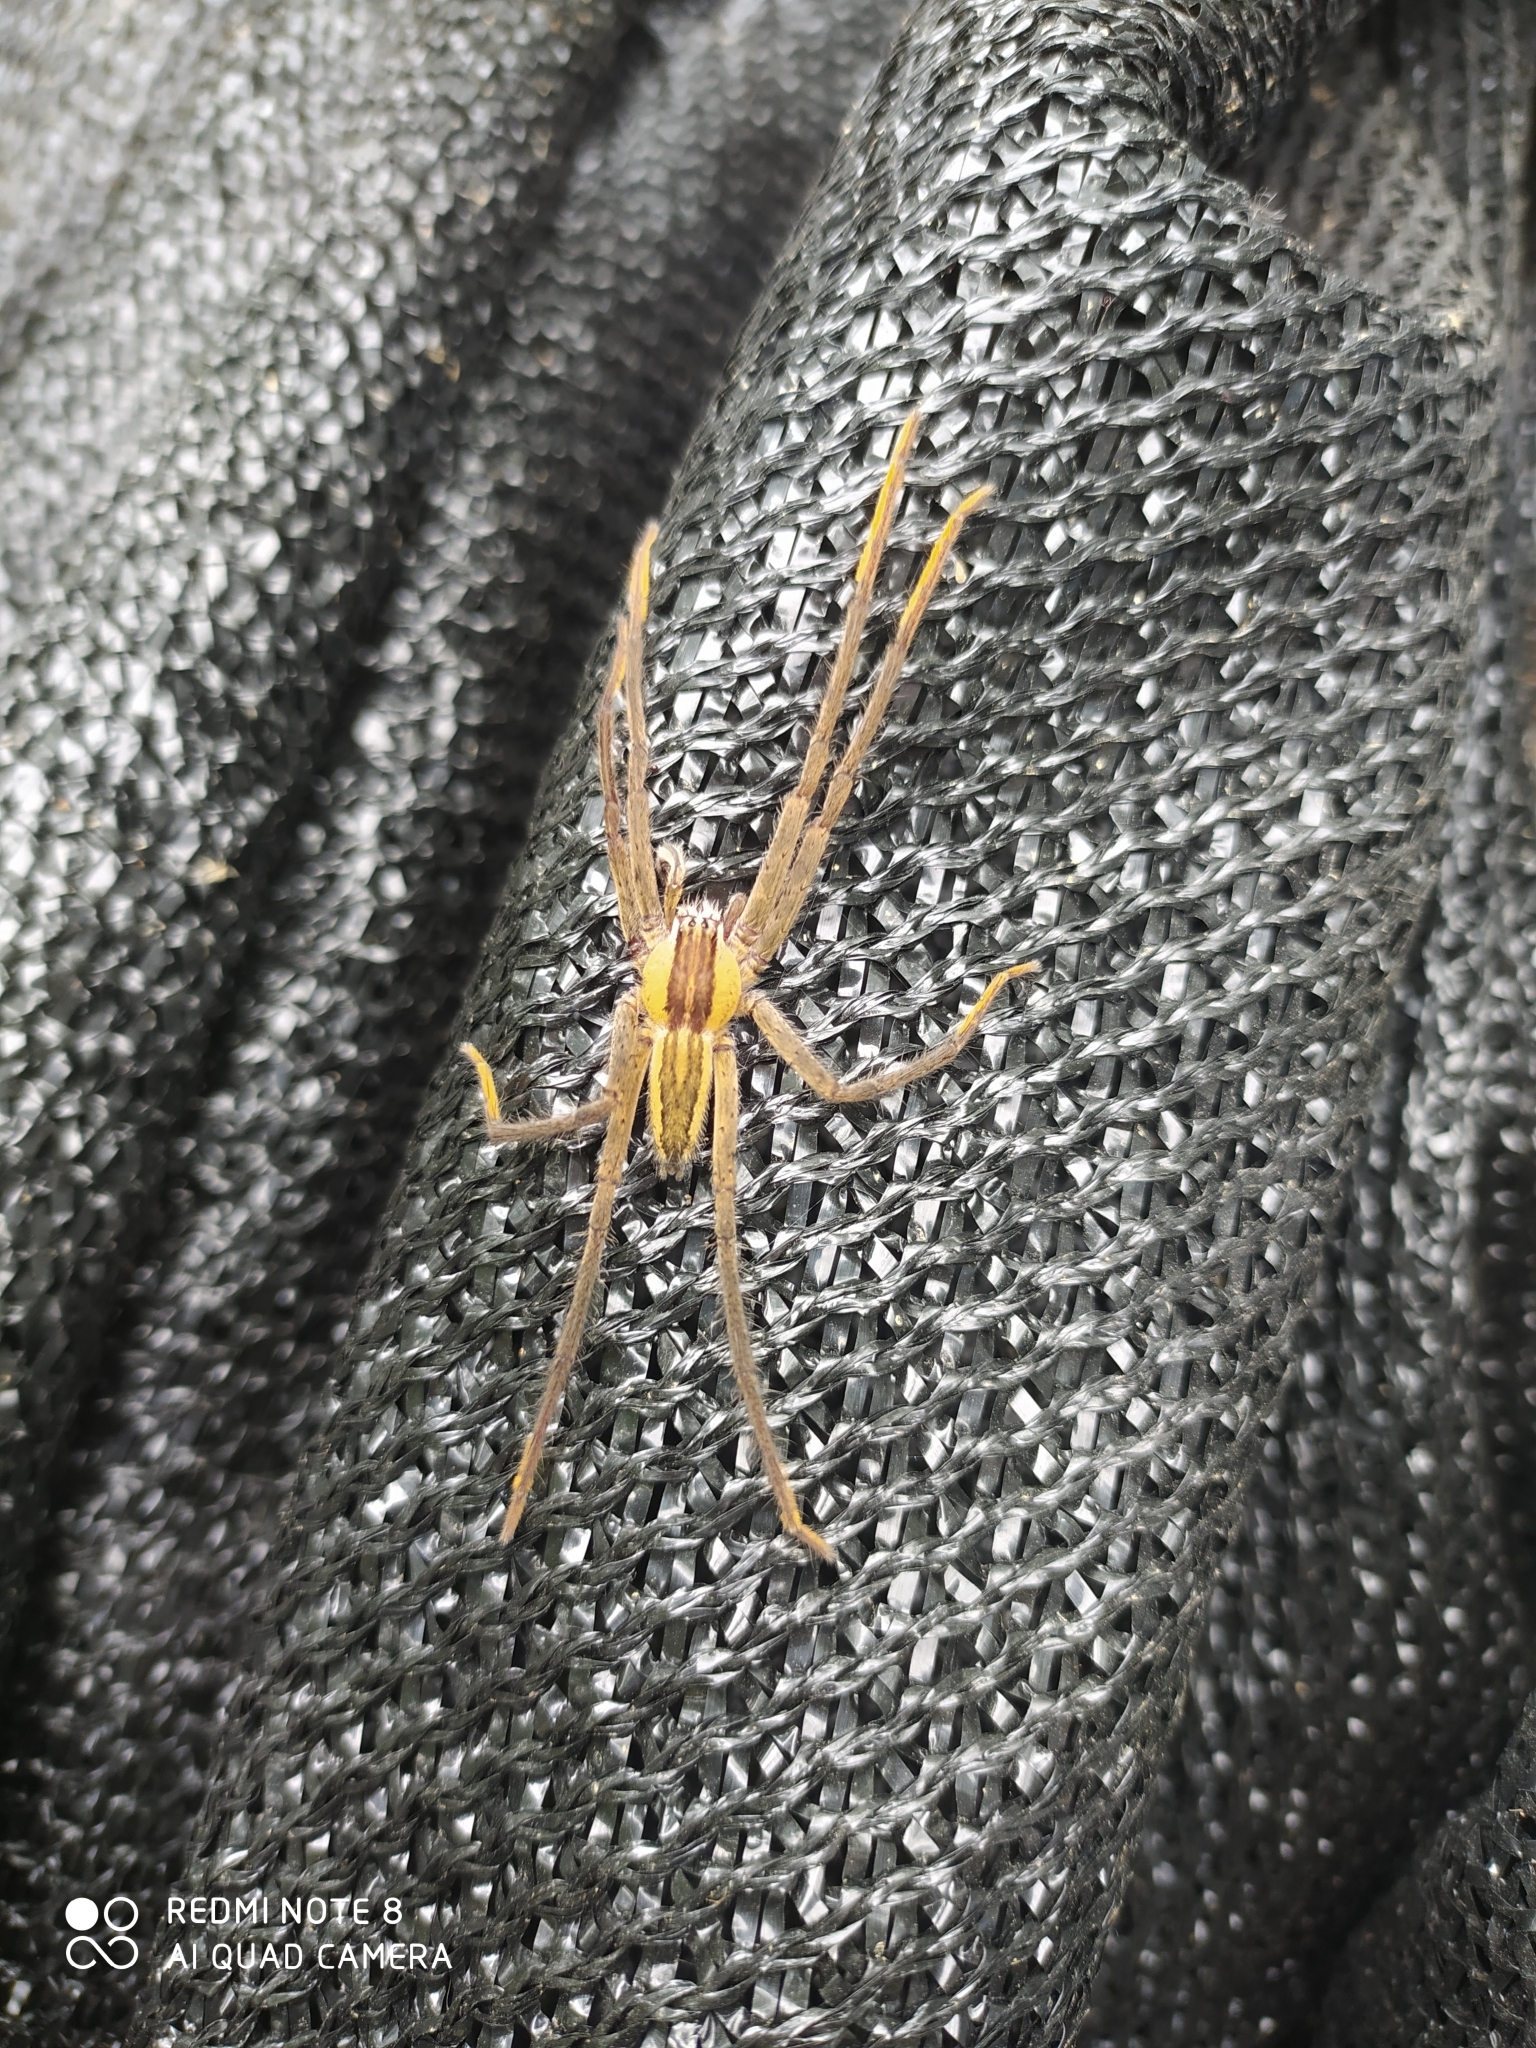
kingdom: Animalia
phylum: Arthropoda
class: Arachnida
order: Araneae
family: Trechaleidae
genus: Cupiennius
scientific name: Cupiennius getazi
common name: Wandering spiders
